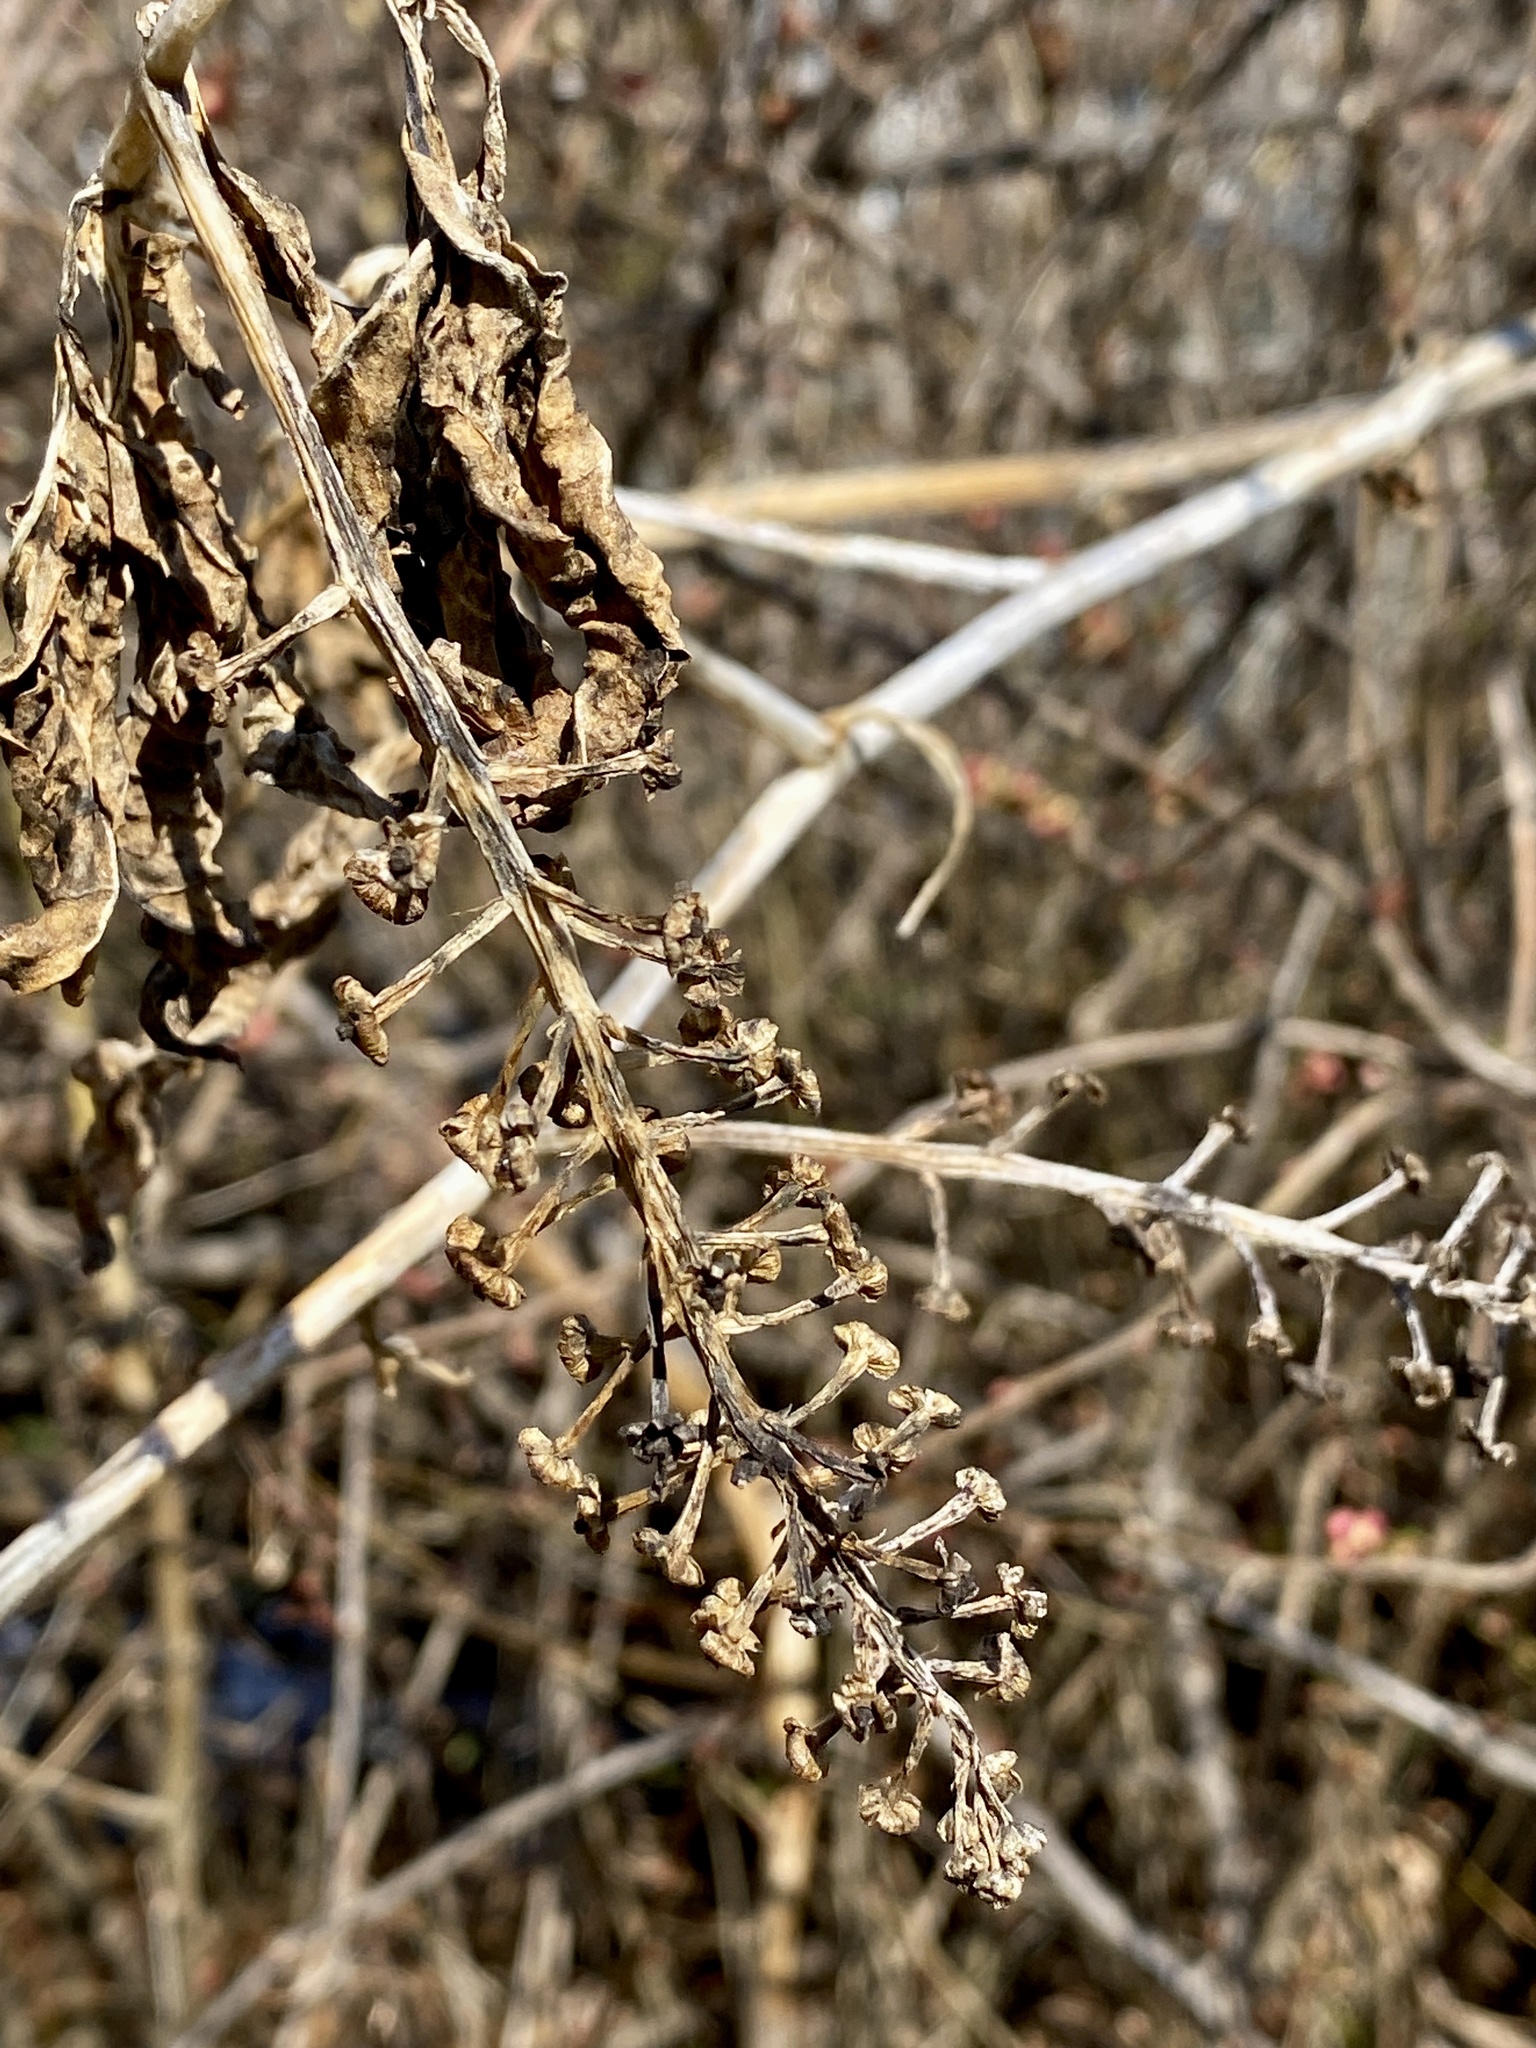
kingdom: Plantae
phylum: Tracheophyta
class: Magnoliopsida
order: Caryophyllales
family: Phytolaccaceae
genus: Phytolacca
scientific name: Phytolacca americana
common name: American pokeweed
